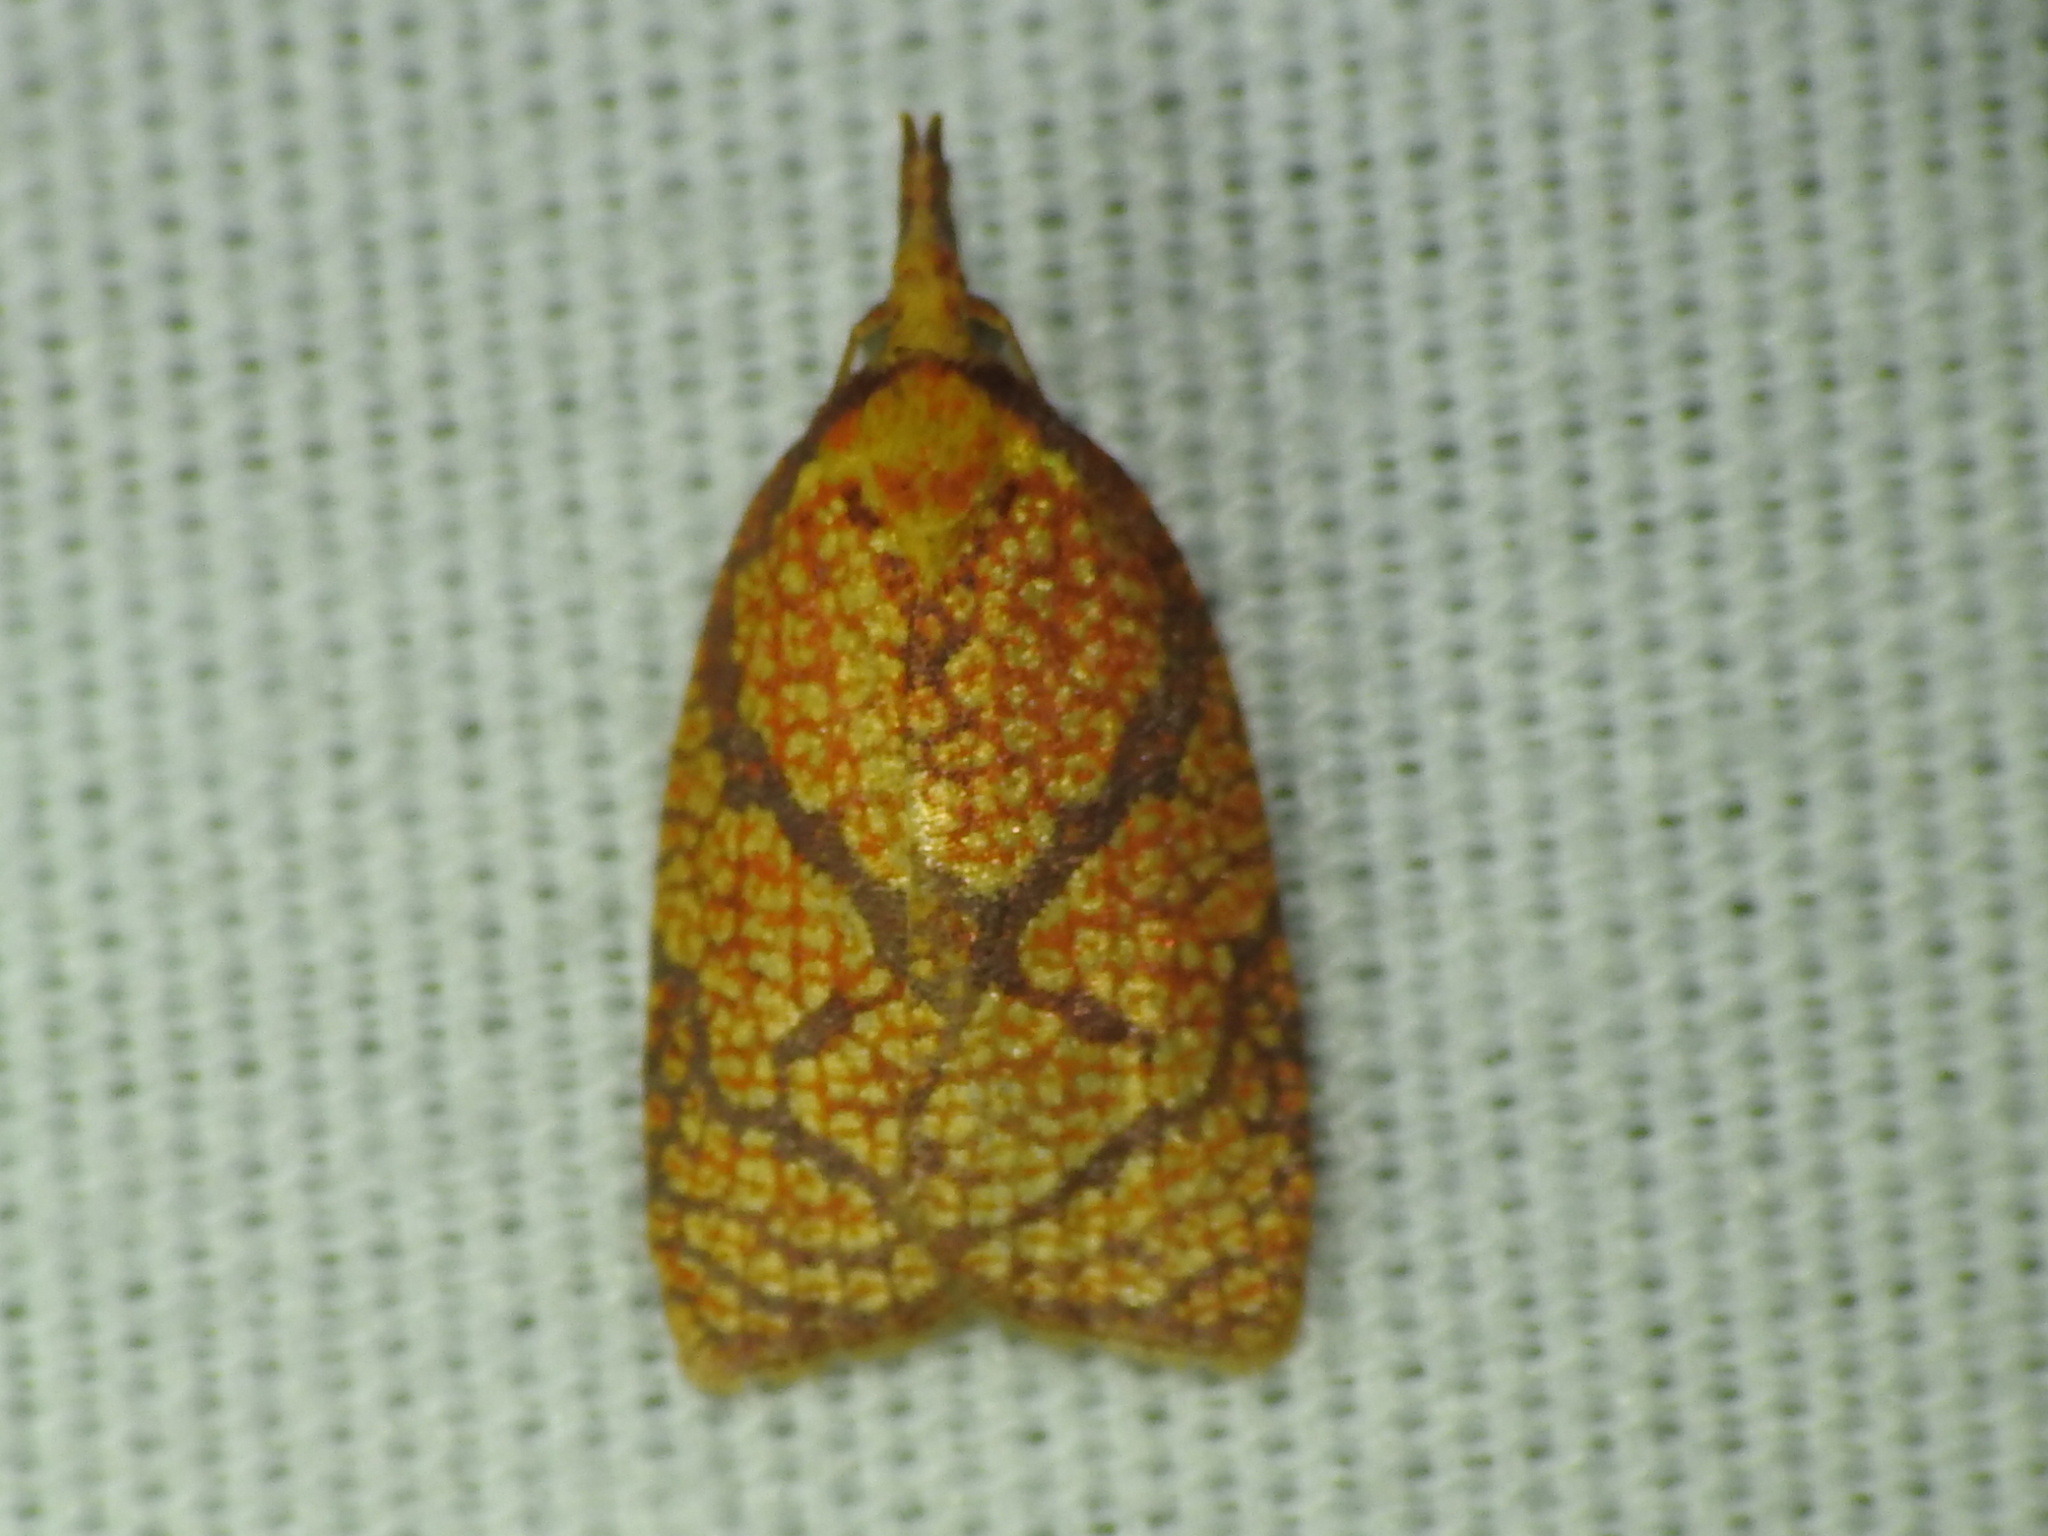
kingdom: Animalia
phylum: Arthropoda
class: Insecta
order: Lepidoptera
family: Tortricidae
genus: Cenopis
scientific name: Cenopis reticulatana
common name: Reticulated fruitworm moth
